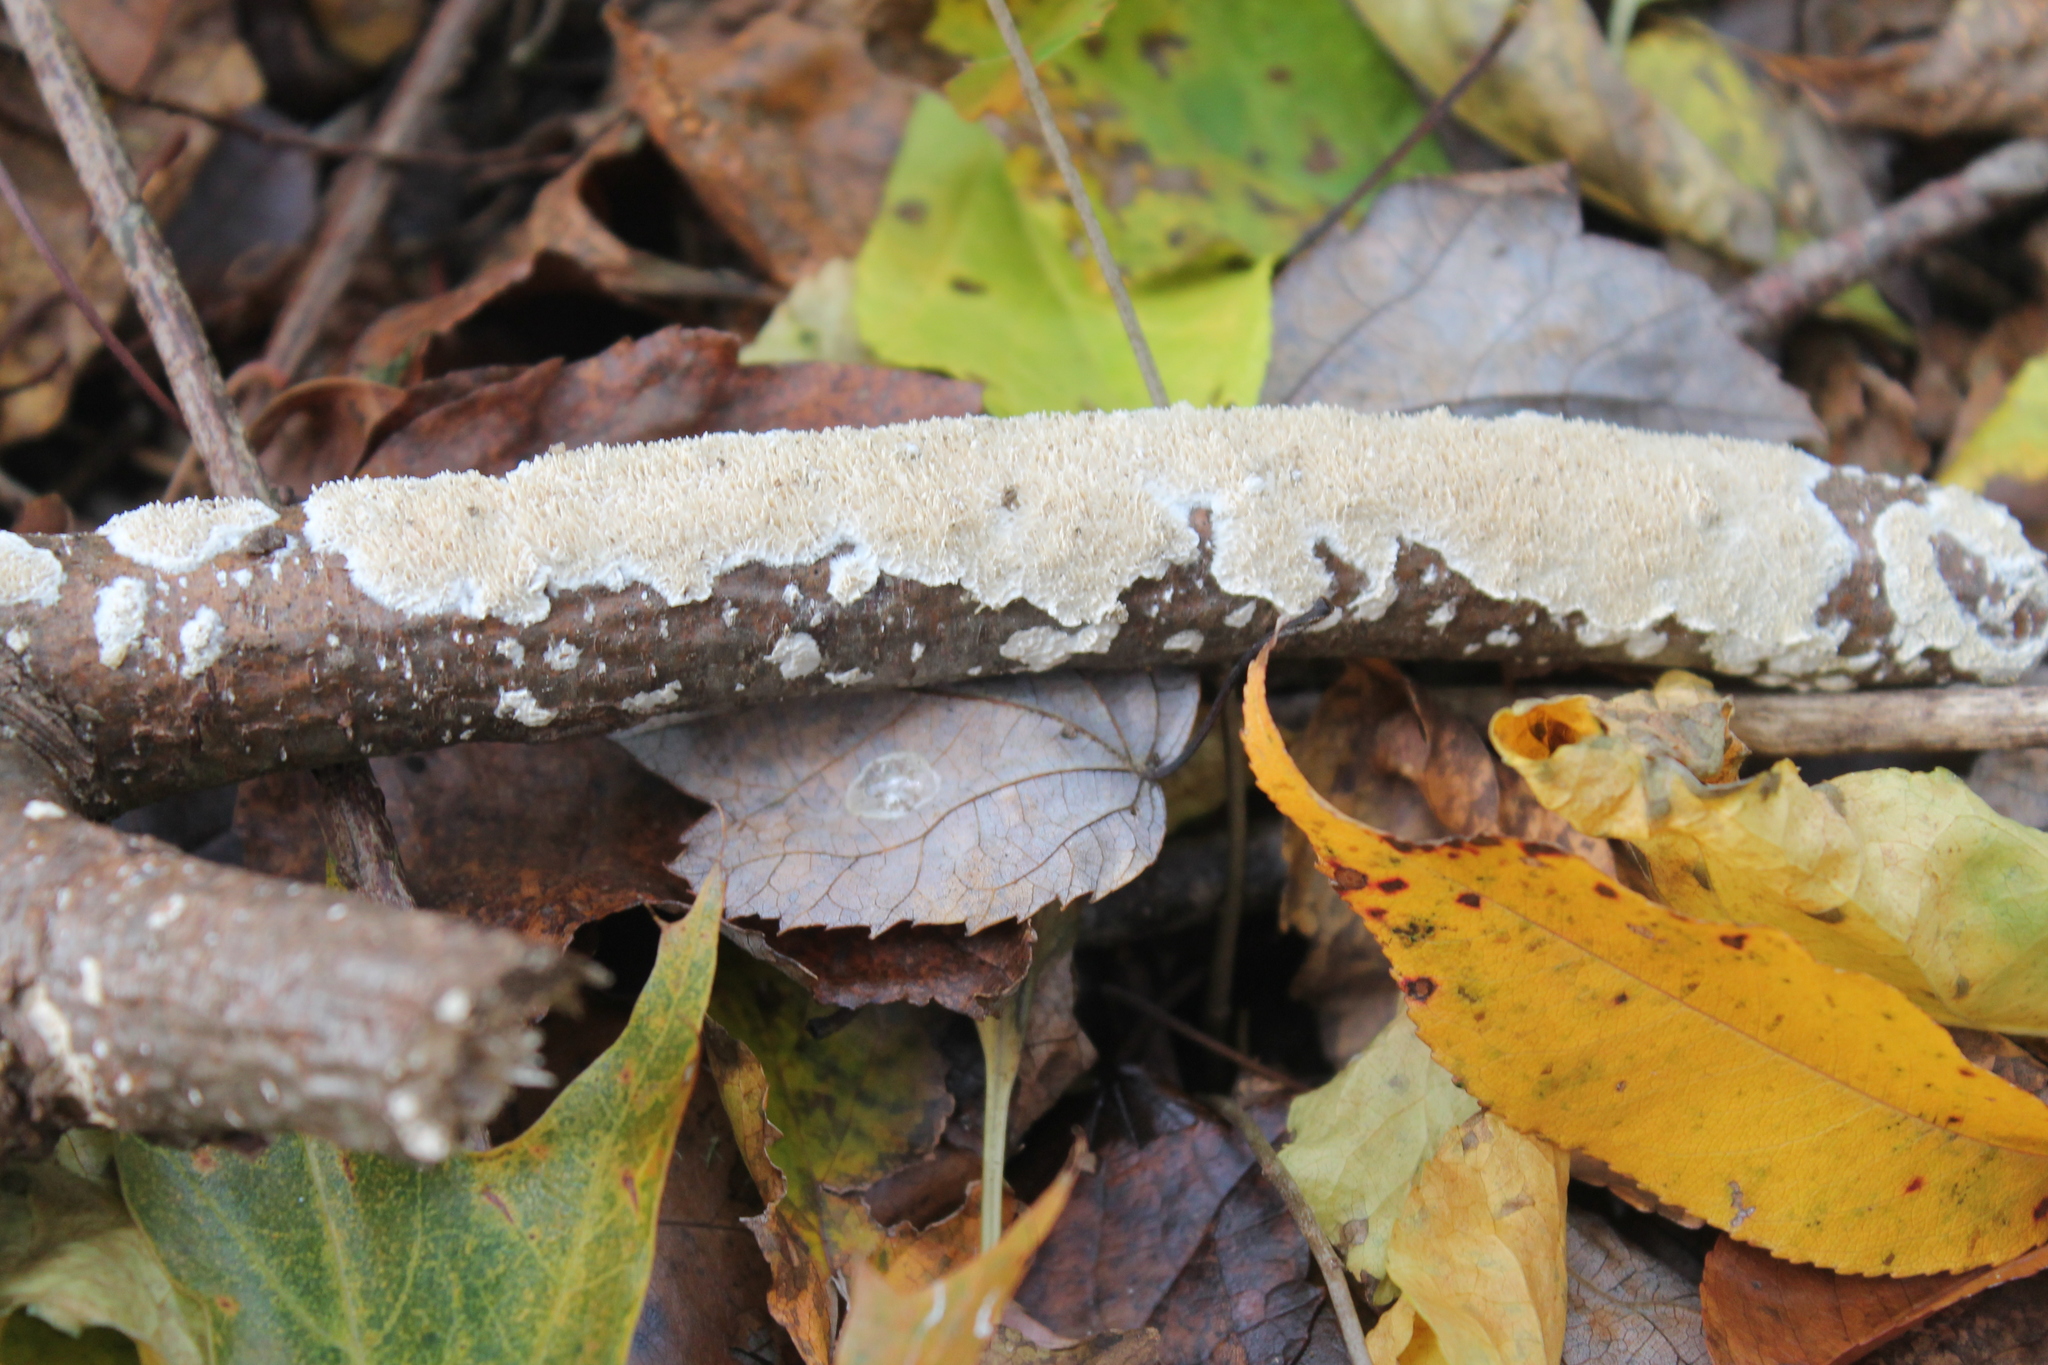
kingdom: Fungi
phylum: Basidiomycota
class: Agaricomycetes
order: Polyporales
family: Irpicaceae
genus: Irpex
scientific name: Irpex lacteus
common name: Milk-white toothed polypore
